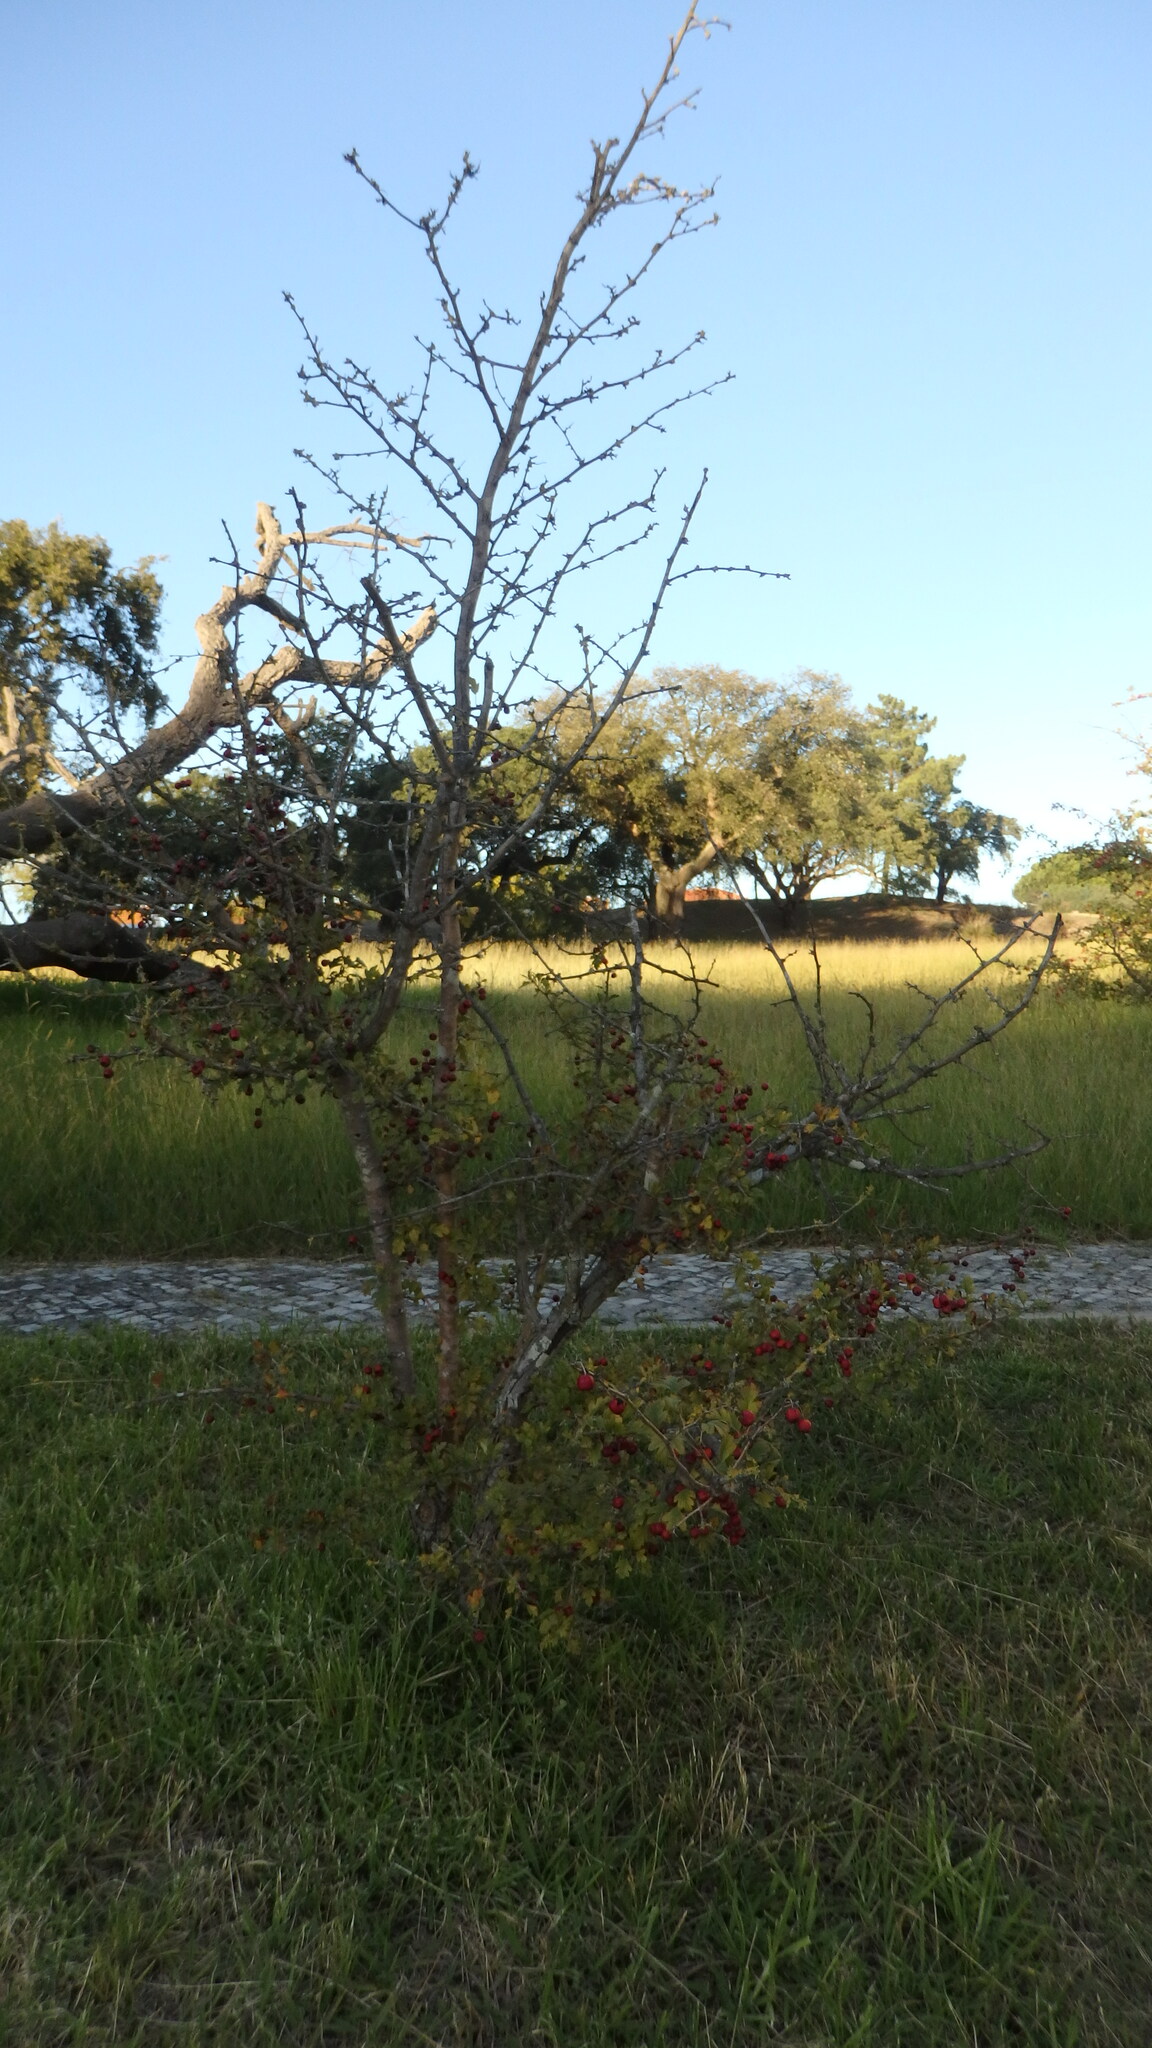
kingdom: Plantae
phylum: Tracheophyta
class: Magnoliopsida
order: Rosales
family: Rosaceae
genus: Crataegus
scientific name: Crataegus monogyna
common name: Hawthorn
